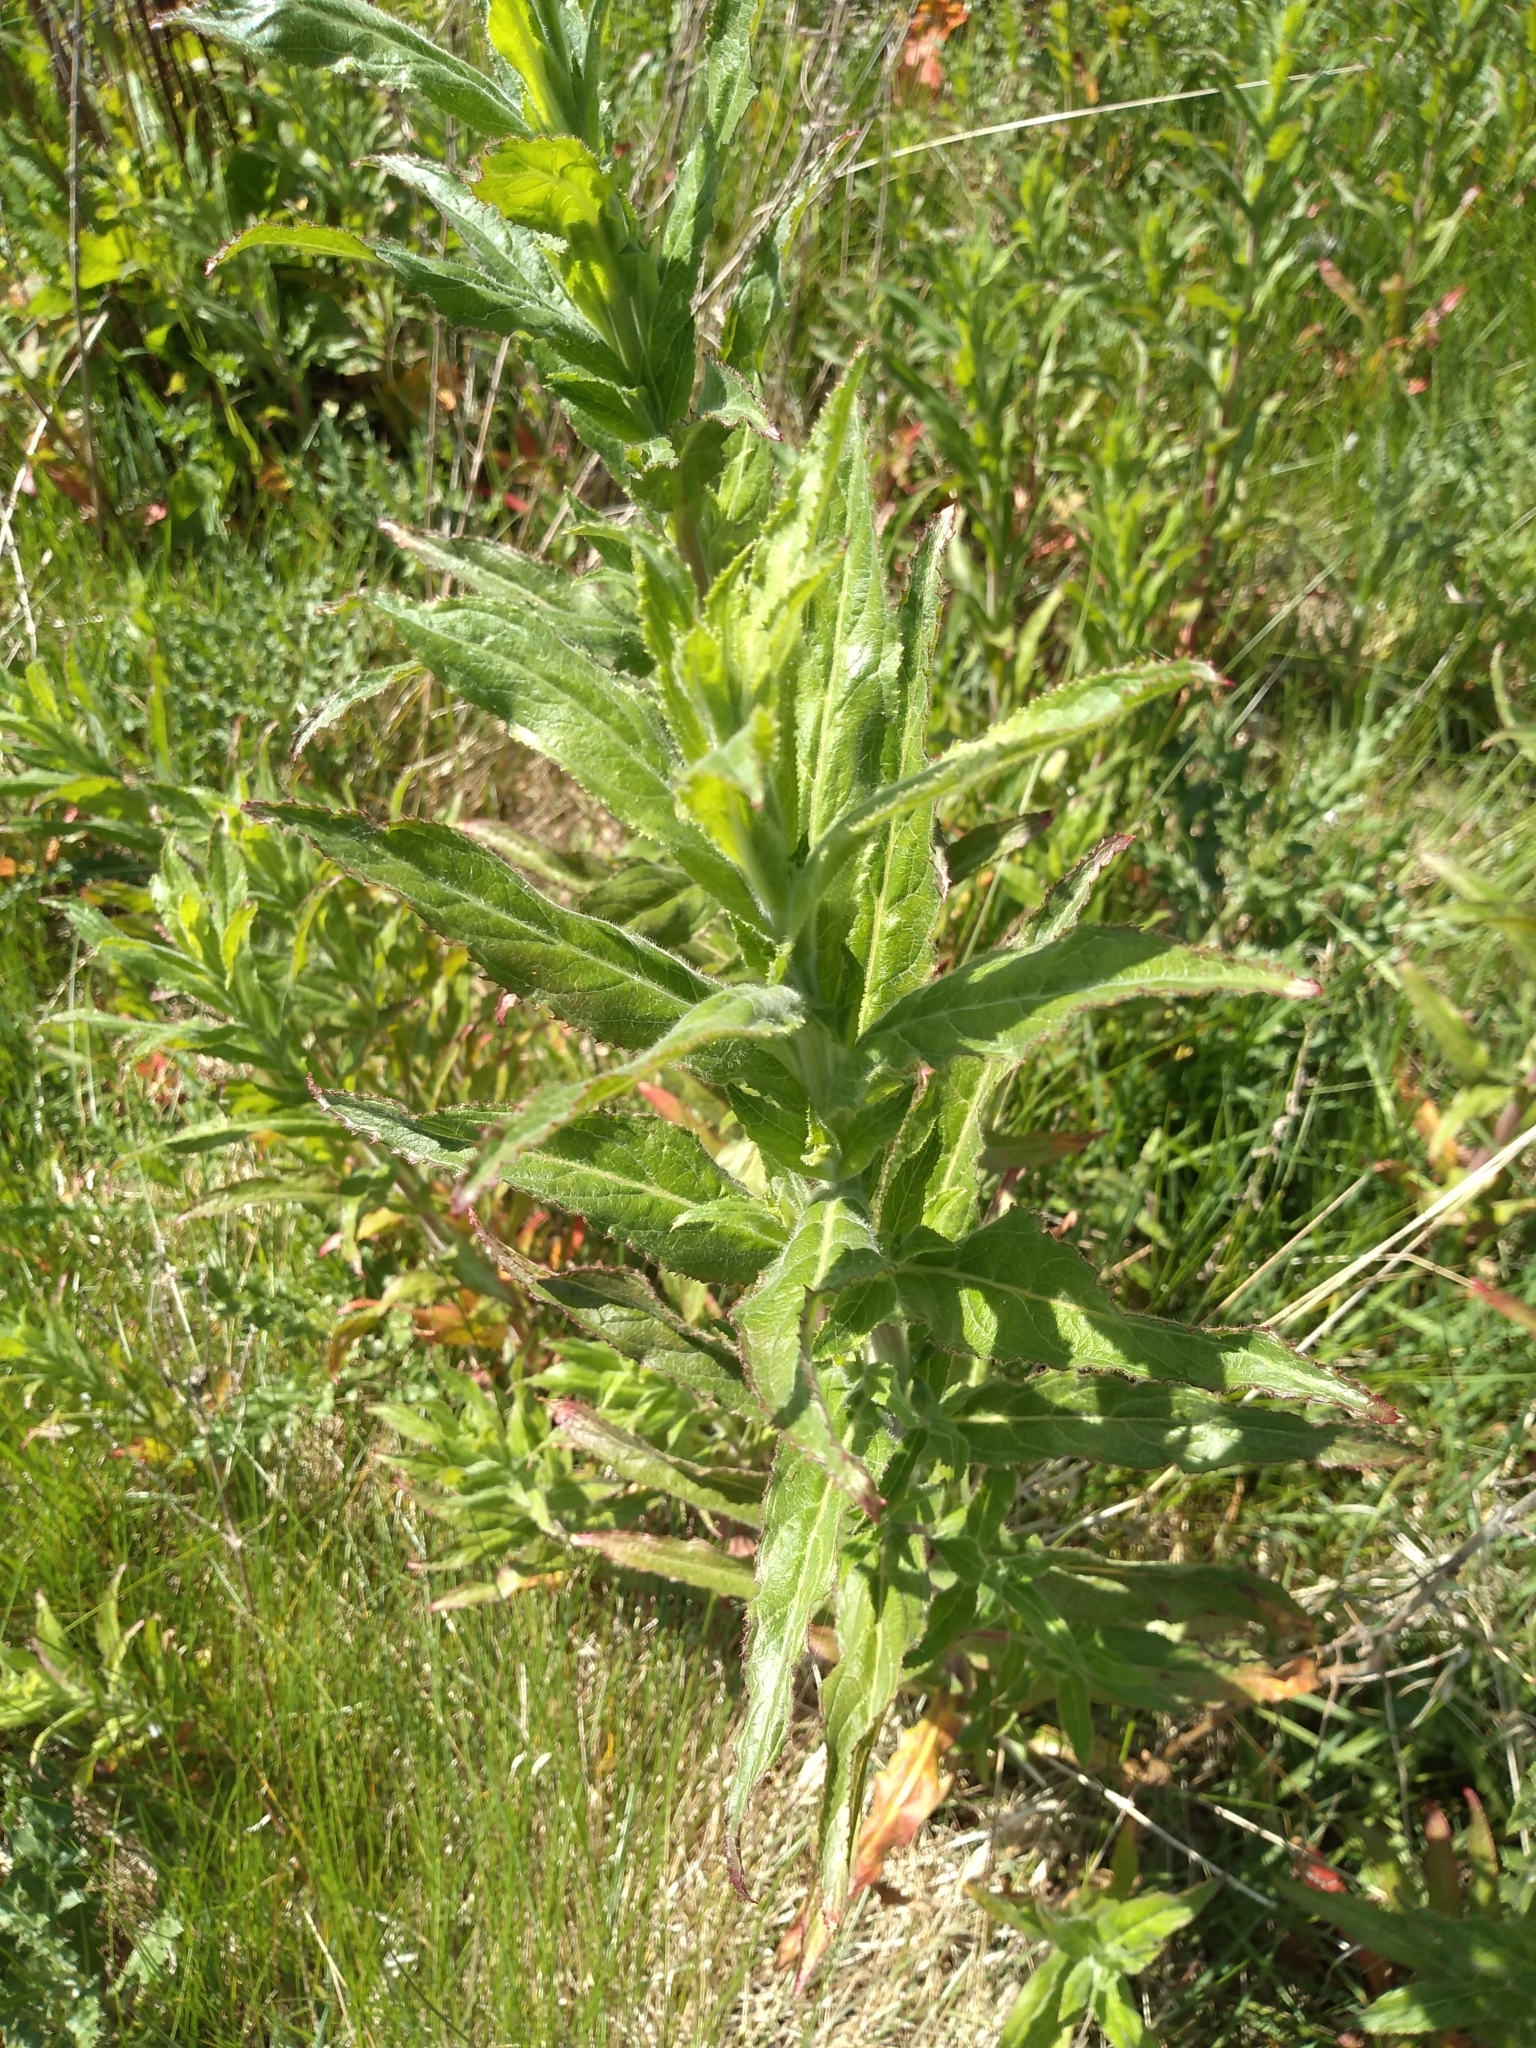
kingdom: Plantae
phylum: Tracheophyta
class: Magnoliopsida
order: Myrtales
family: Onagraceae
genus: Epilobium
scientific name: Epilobium hirsutum
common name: Great willowherb
